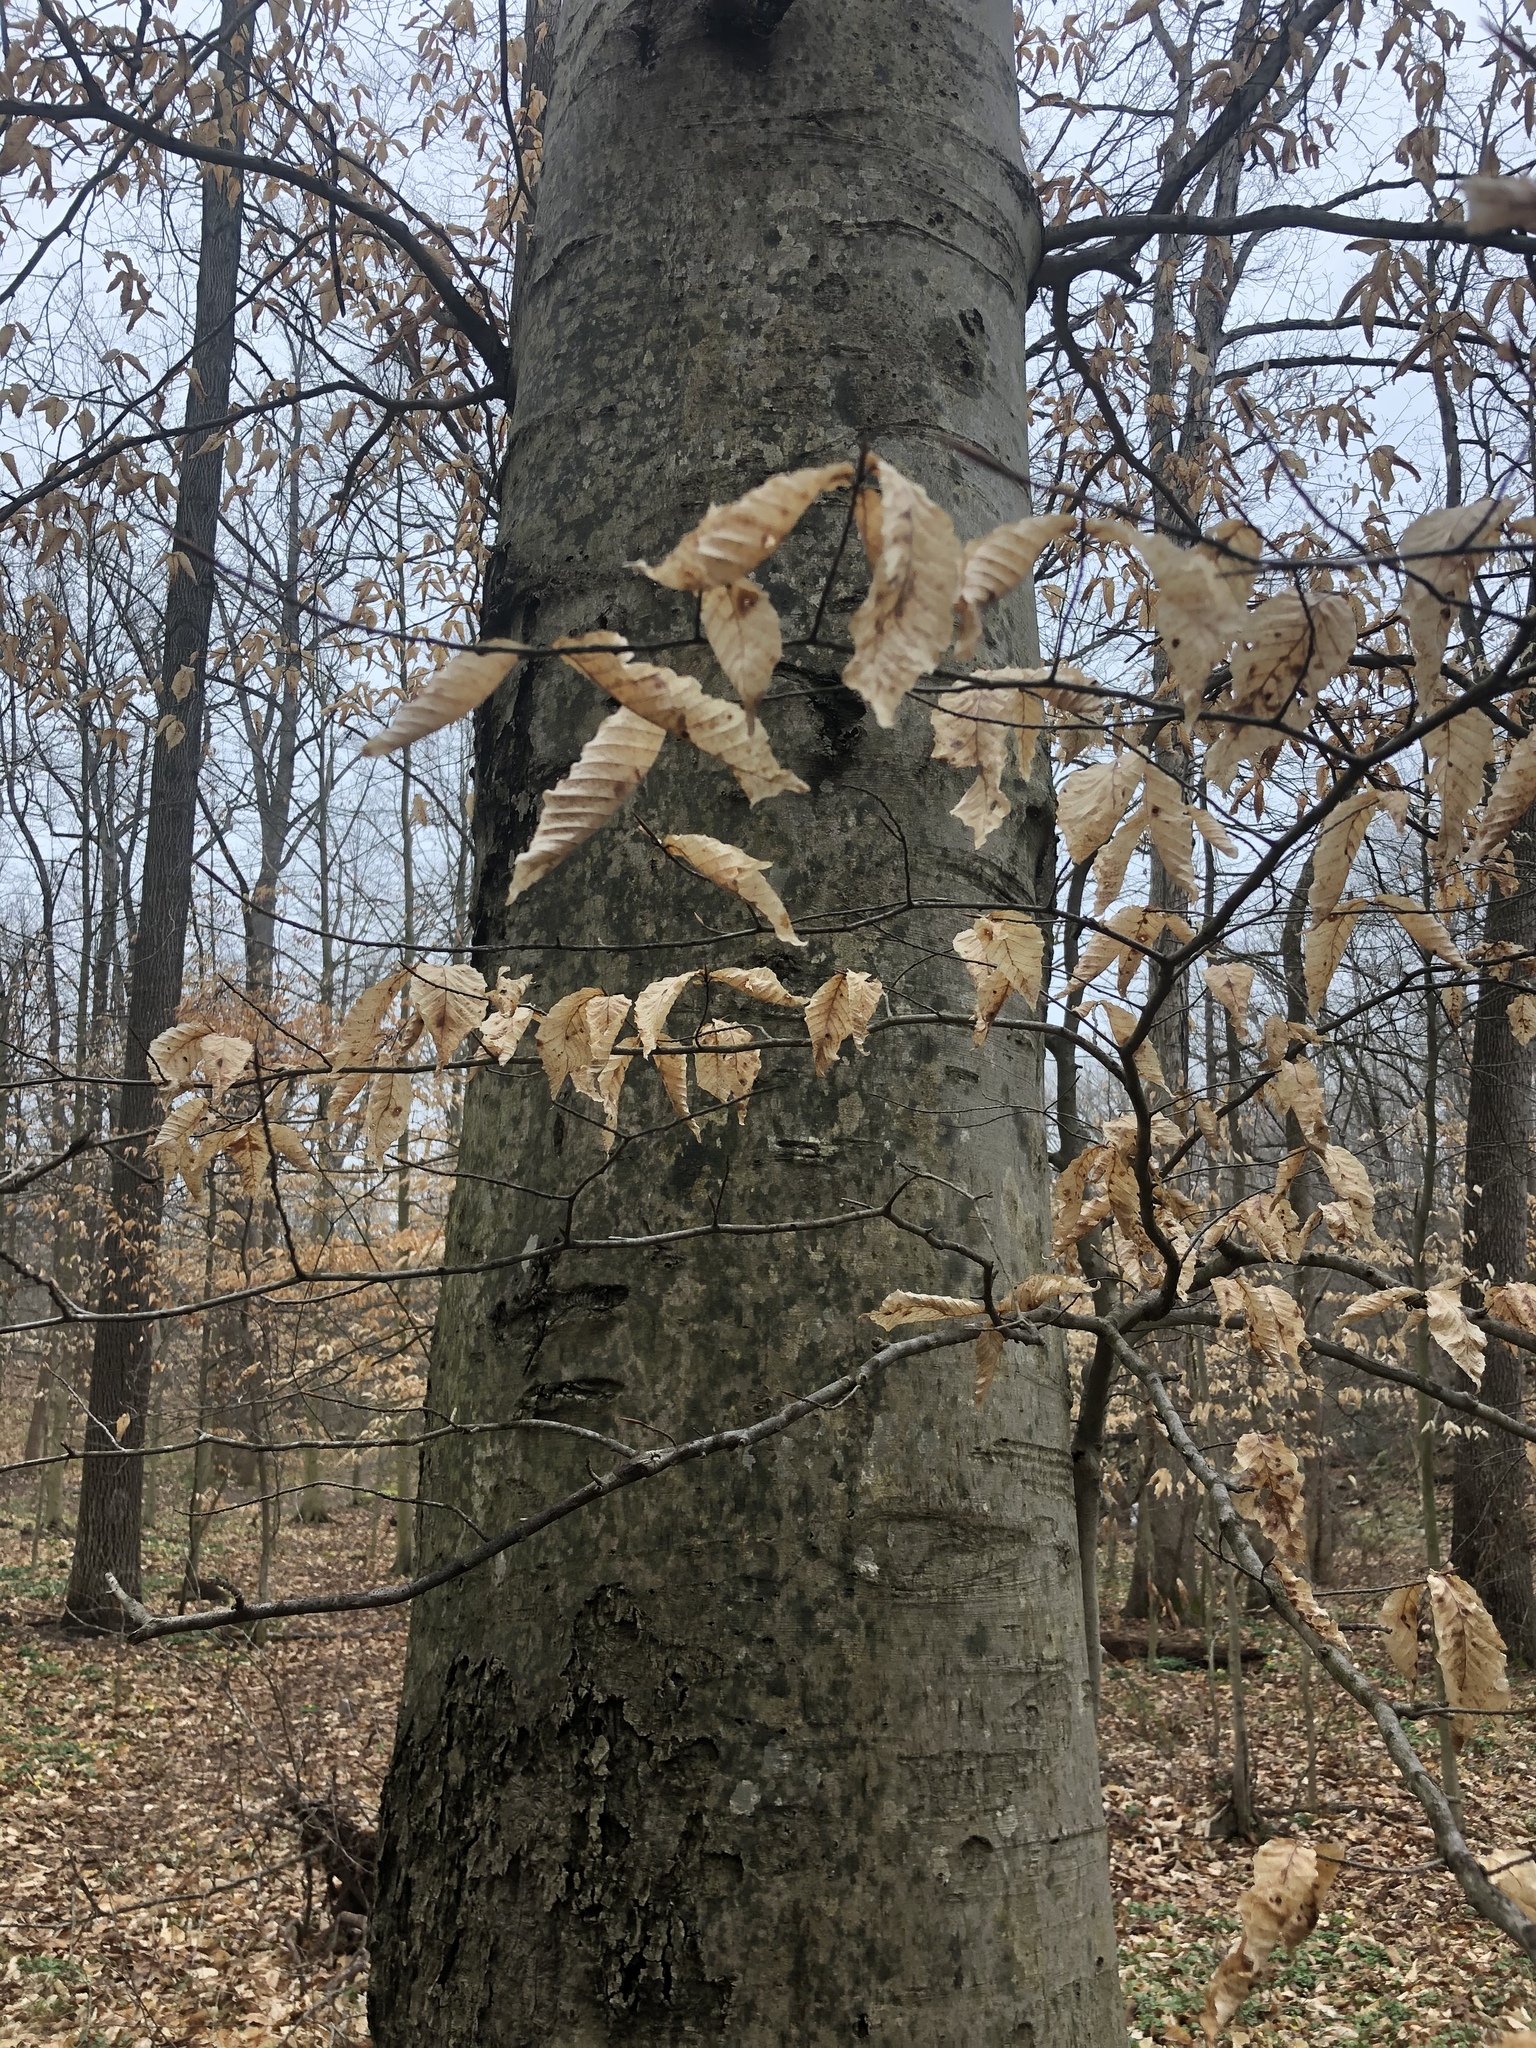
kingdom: Plantae
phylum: Tracheophyta
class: Magnoliopsida
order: Fagales
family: Fagaceae
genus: Fagus
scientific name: Fagus grandifolia
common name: American beech
